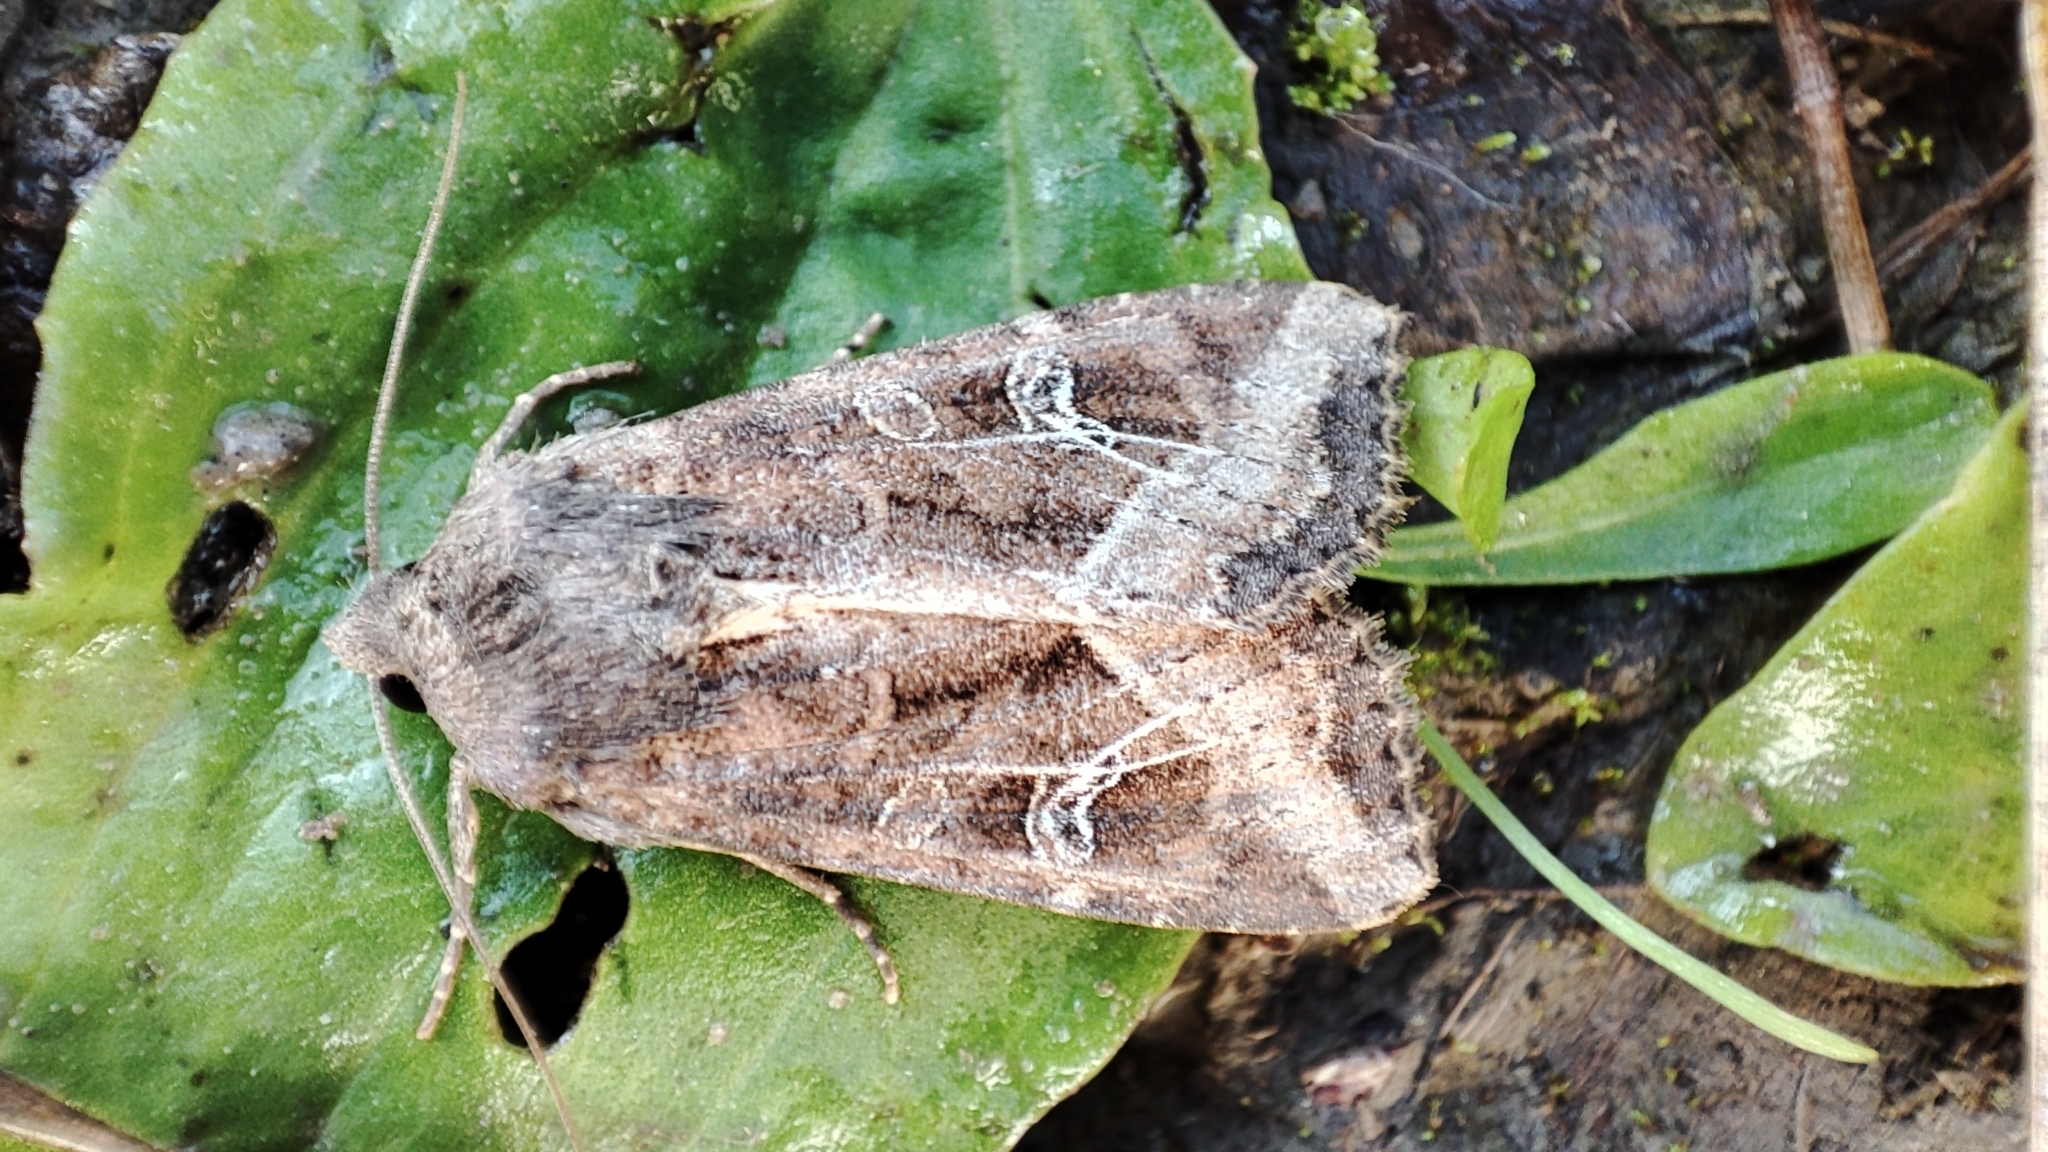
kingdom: Animalia
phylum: Arthropoda
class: Insecta
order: Lepidoptera
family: Noctuidae
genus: Helotropha
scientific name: Helotropha leucostigma
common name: The crescent
